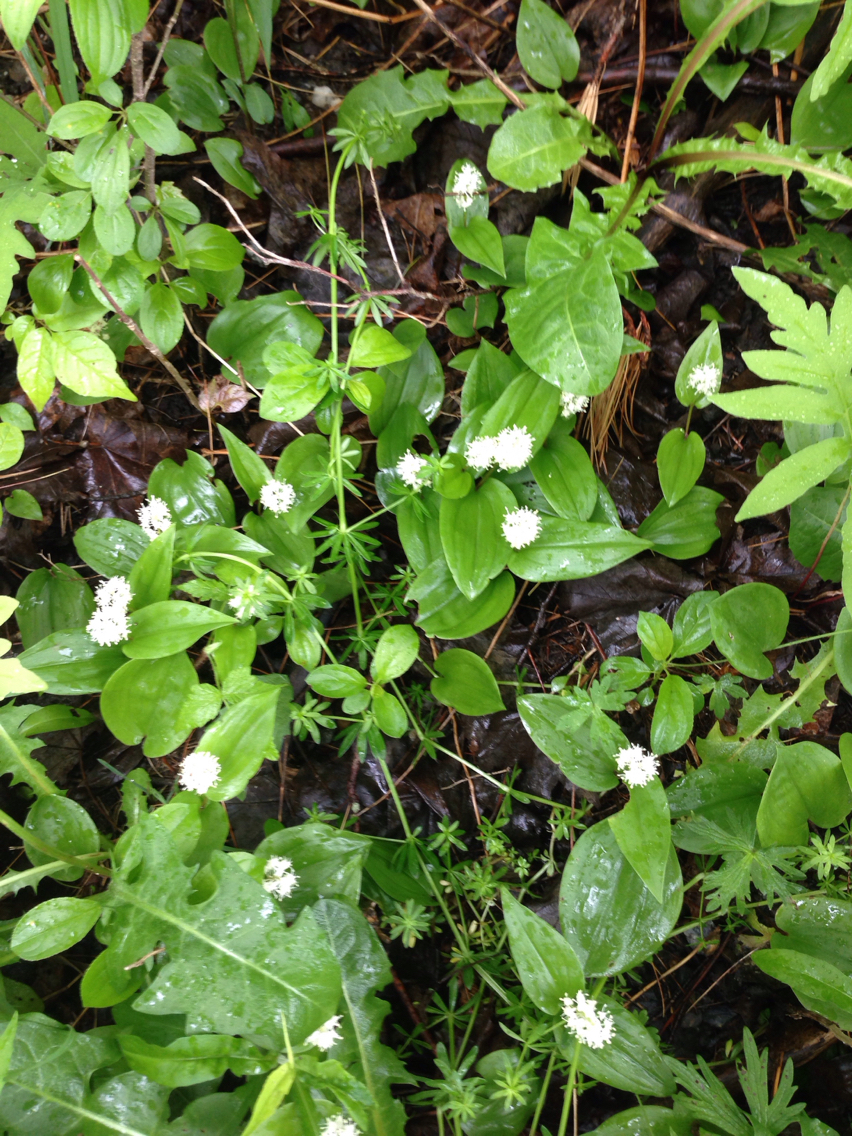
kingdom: Plantae
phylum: Tracheophyta
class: Liliopsida
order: Asparagales
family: Asparagaceae
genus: Maianthemum
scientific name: Maianthemum canadense
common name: False lily-of-the-valley
